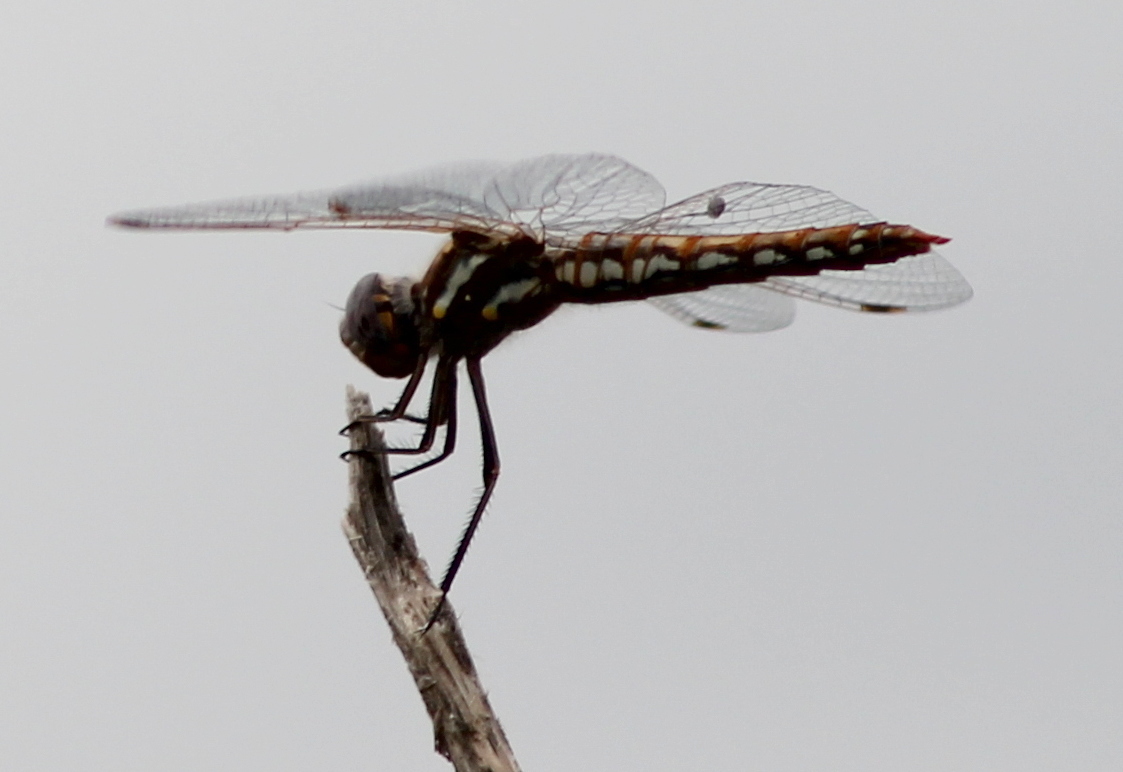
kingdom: Animalia
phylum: Arthropoda
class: Insecta
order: Odonata
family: Libellulidae
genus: Sympetrum
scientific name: Sympetrum corruptum
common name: Variegated meadowhawk
